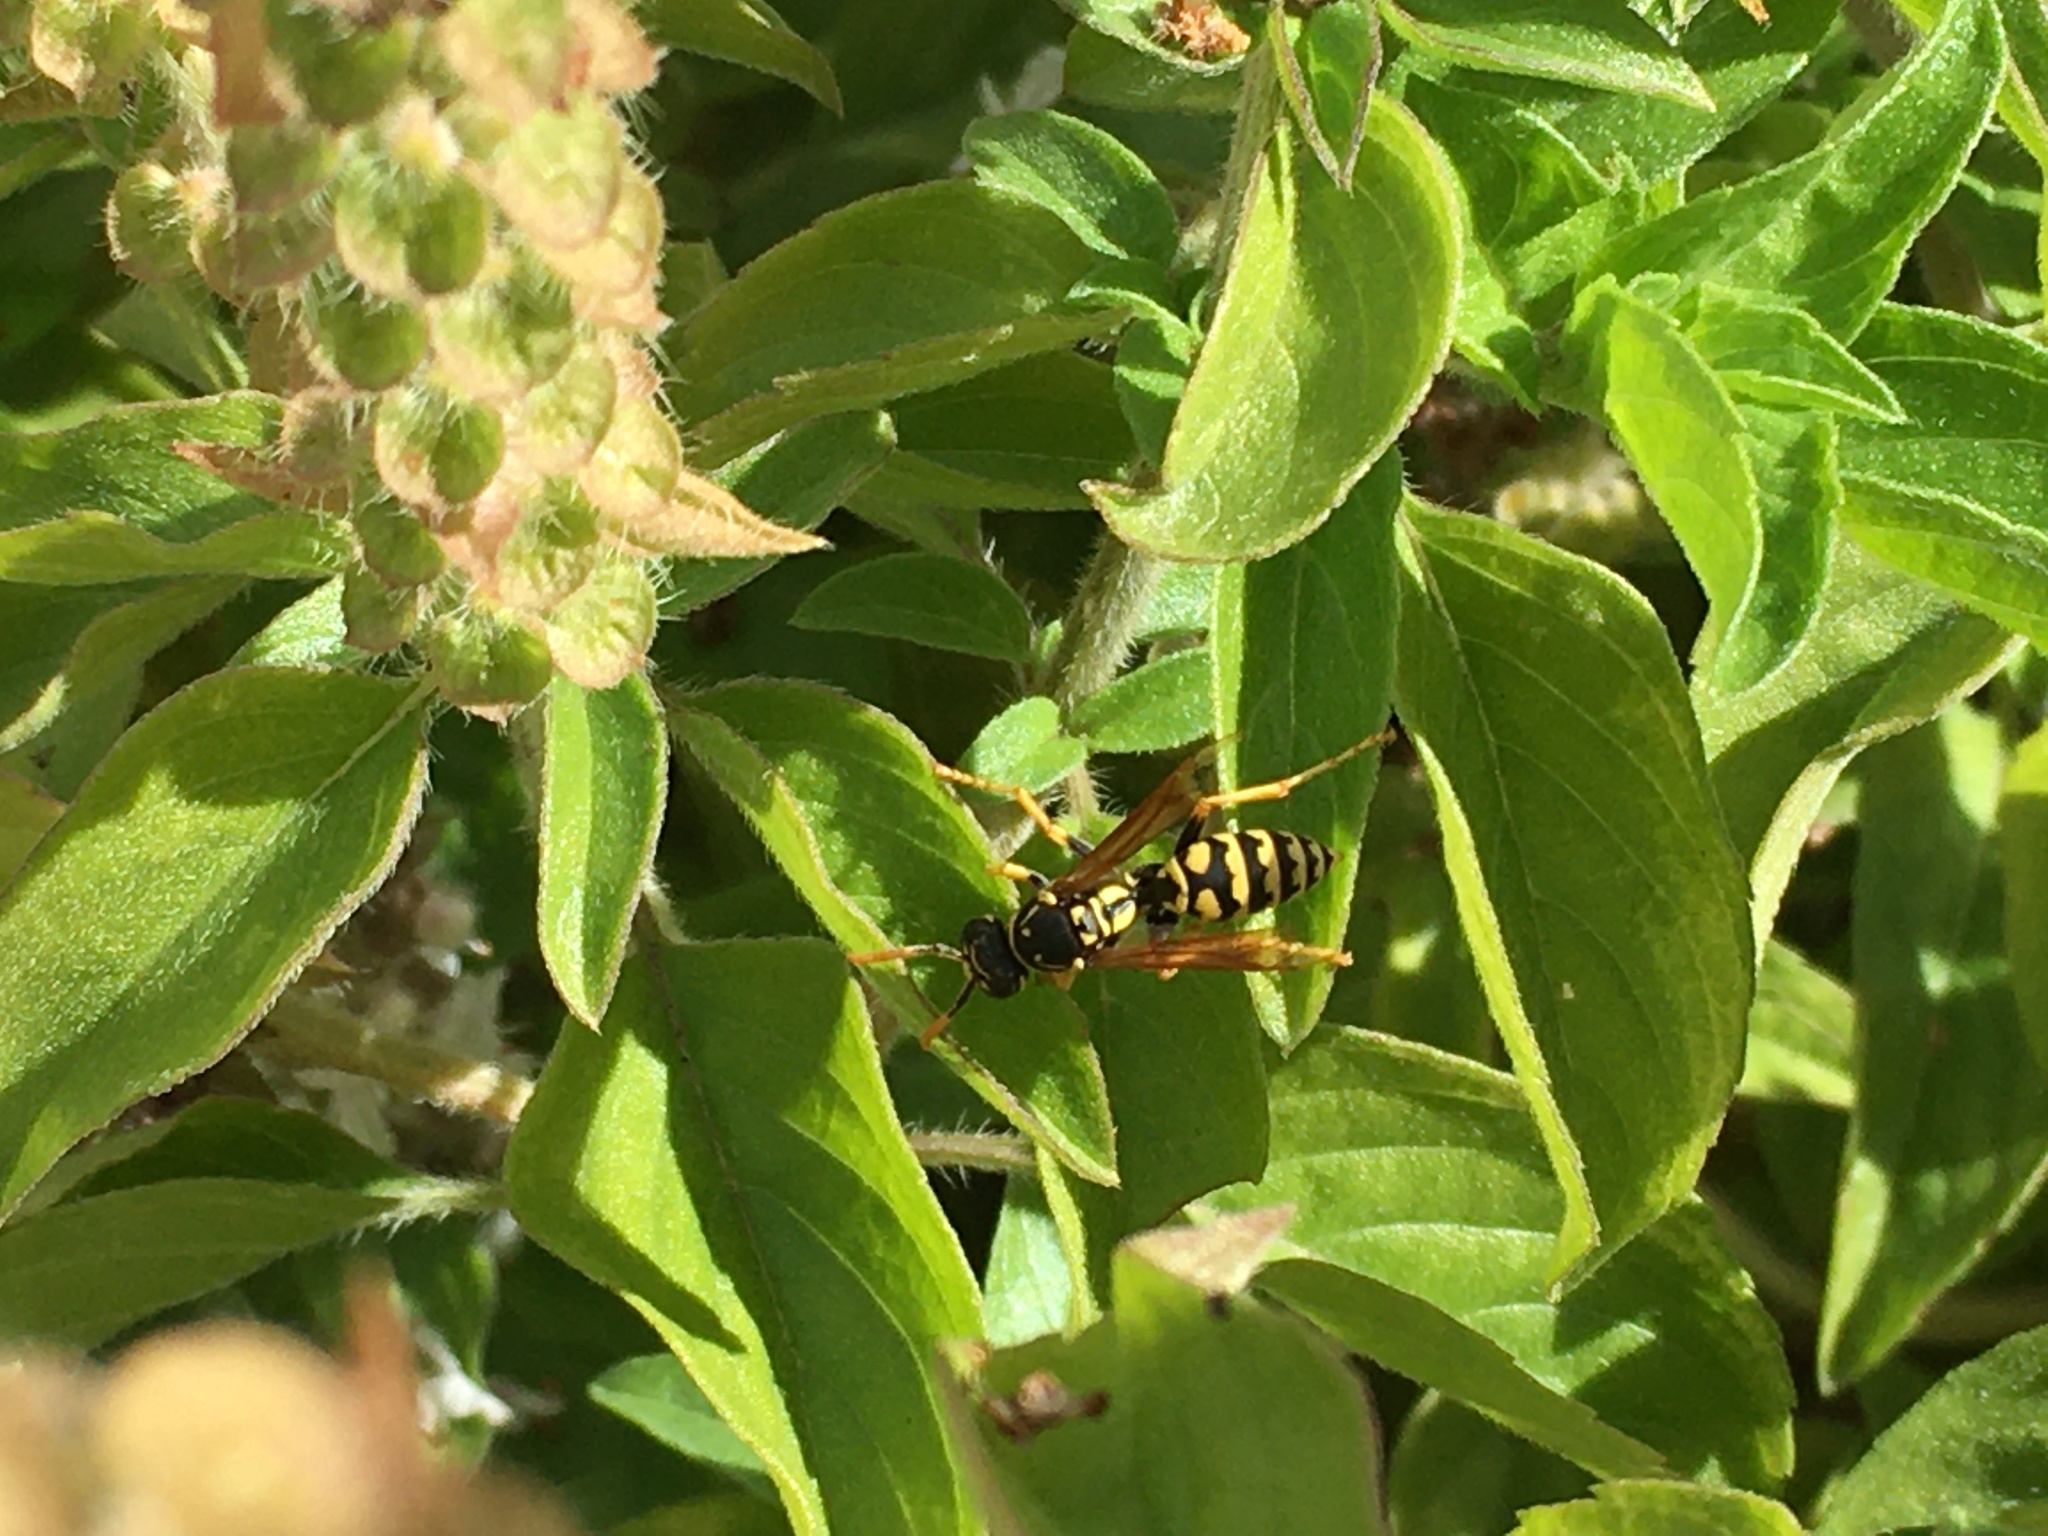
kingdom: Animalia
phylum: Arthropoda
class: Insecta
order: Hymenoptera
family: Eumenidae
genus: Polistes
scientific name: Polistes dominula
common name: Paper wasp
